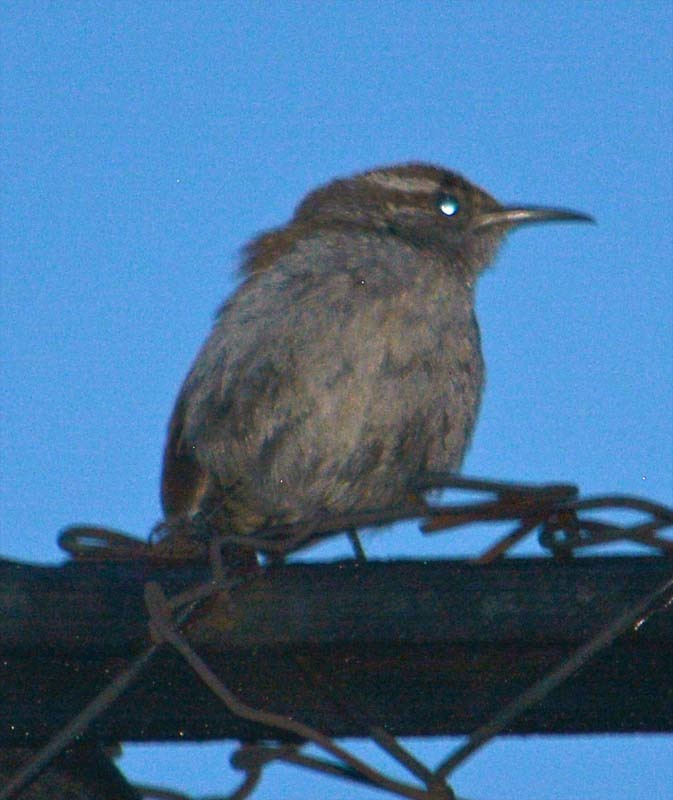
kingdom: Animalia
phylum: Chordata
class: Aves
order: Passeriformes
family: Troglodytidae
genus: Thryomanes
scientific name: Thryomanes bewickii
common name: Bewick's wren
